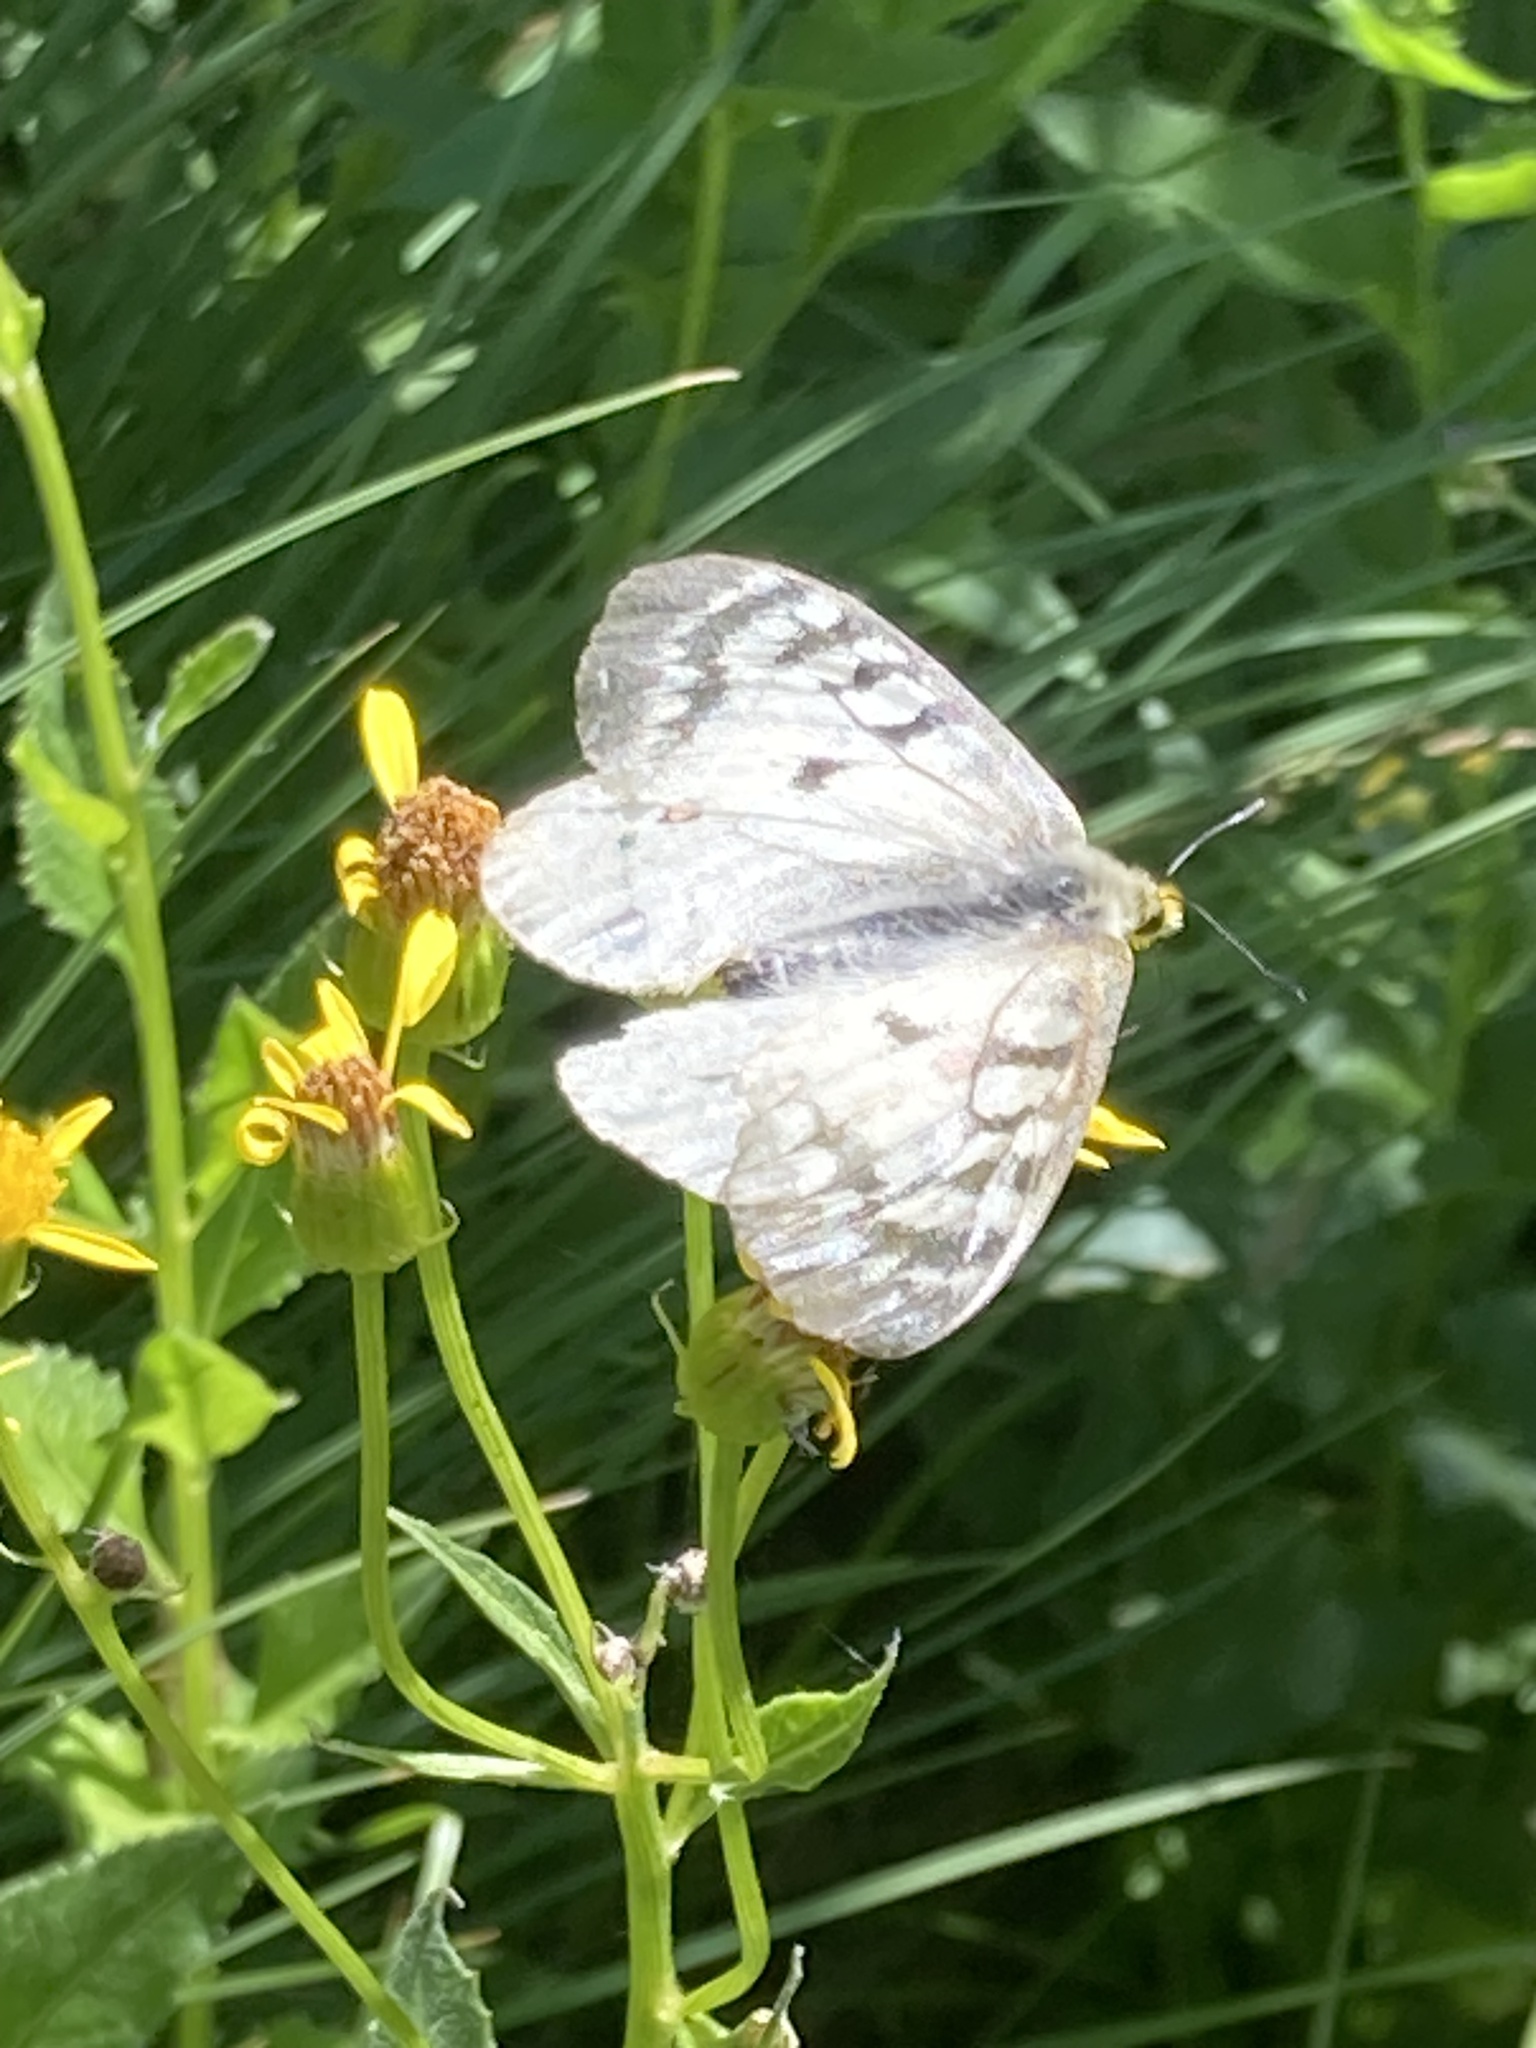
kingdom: Animalia
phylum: Arthropoda
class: Insecta
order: Lepidoptera
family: Papilionidae
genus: Parnassius
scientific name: Parnassius clodius
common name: American apollo
